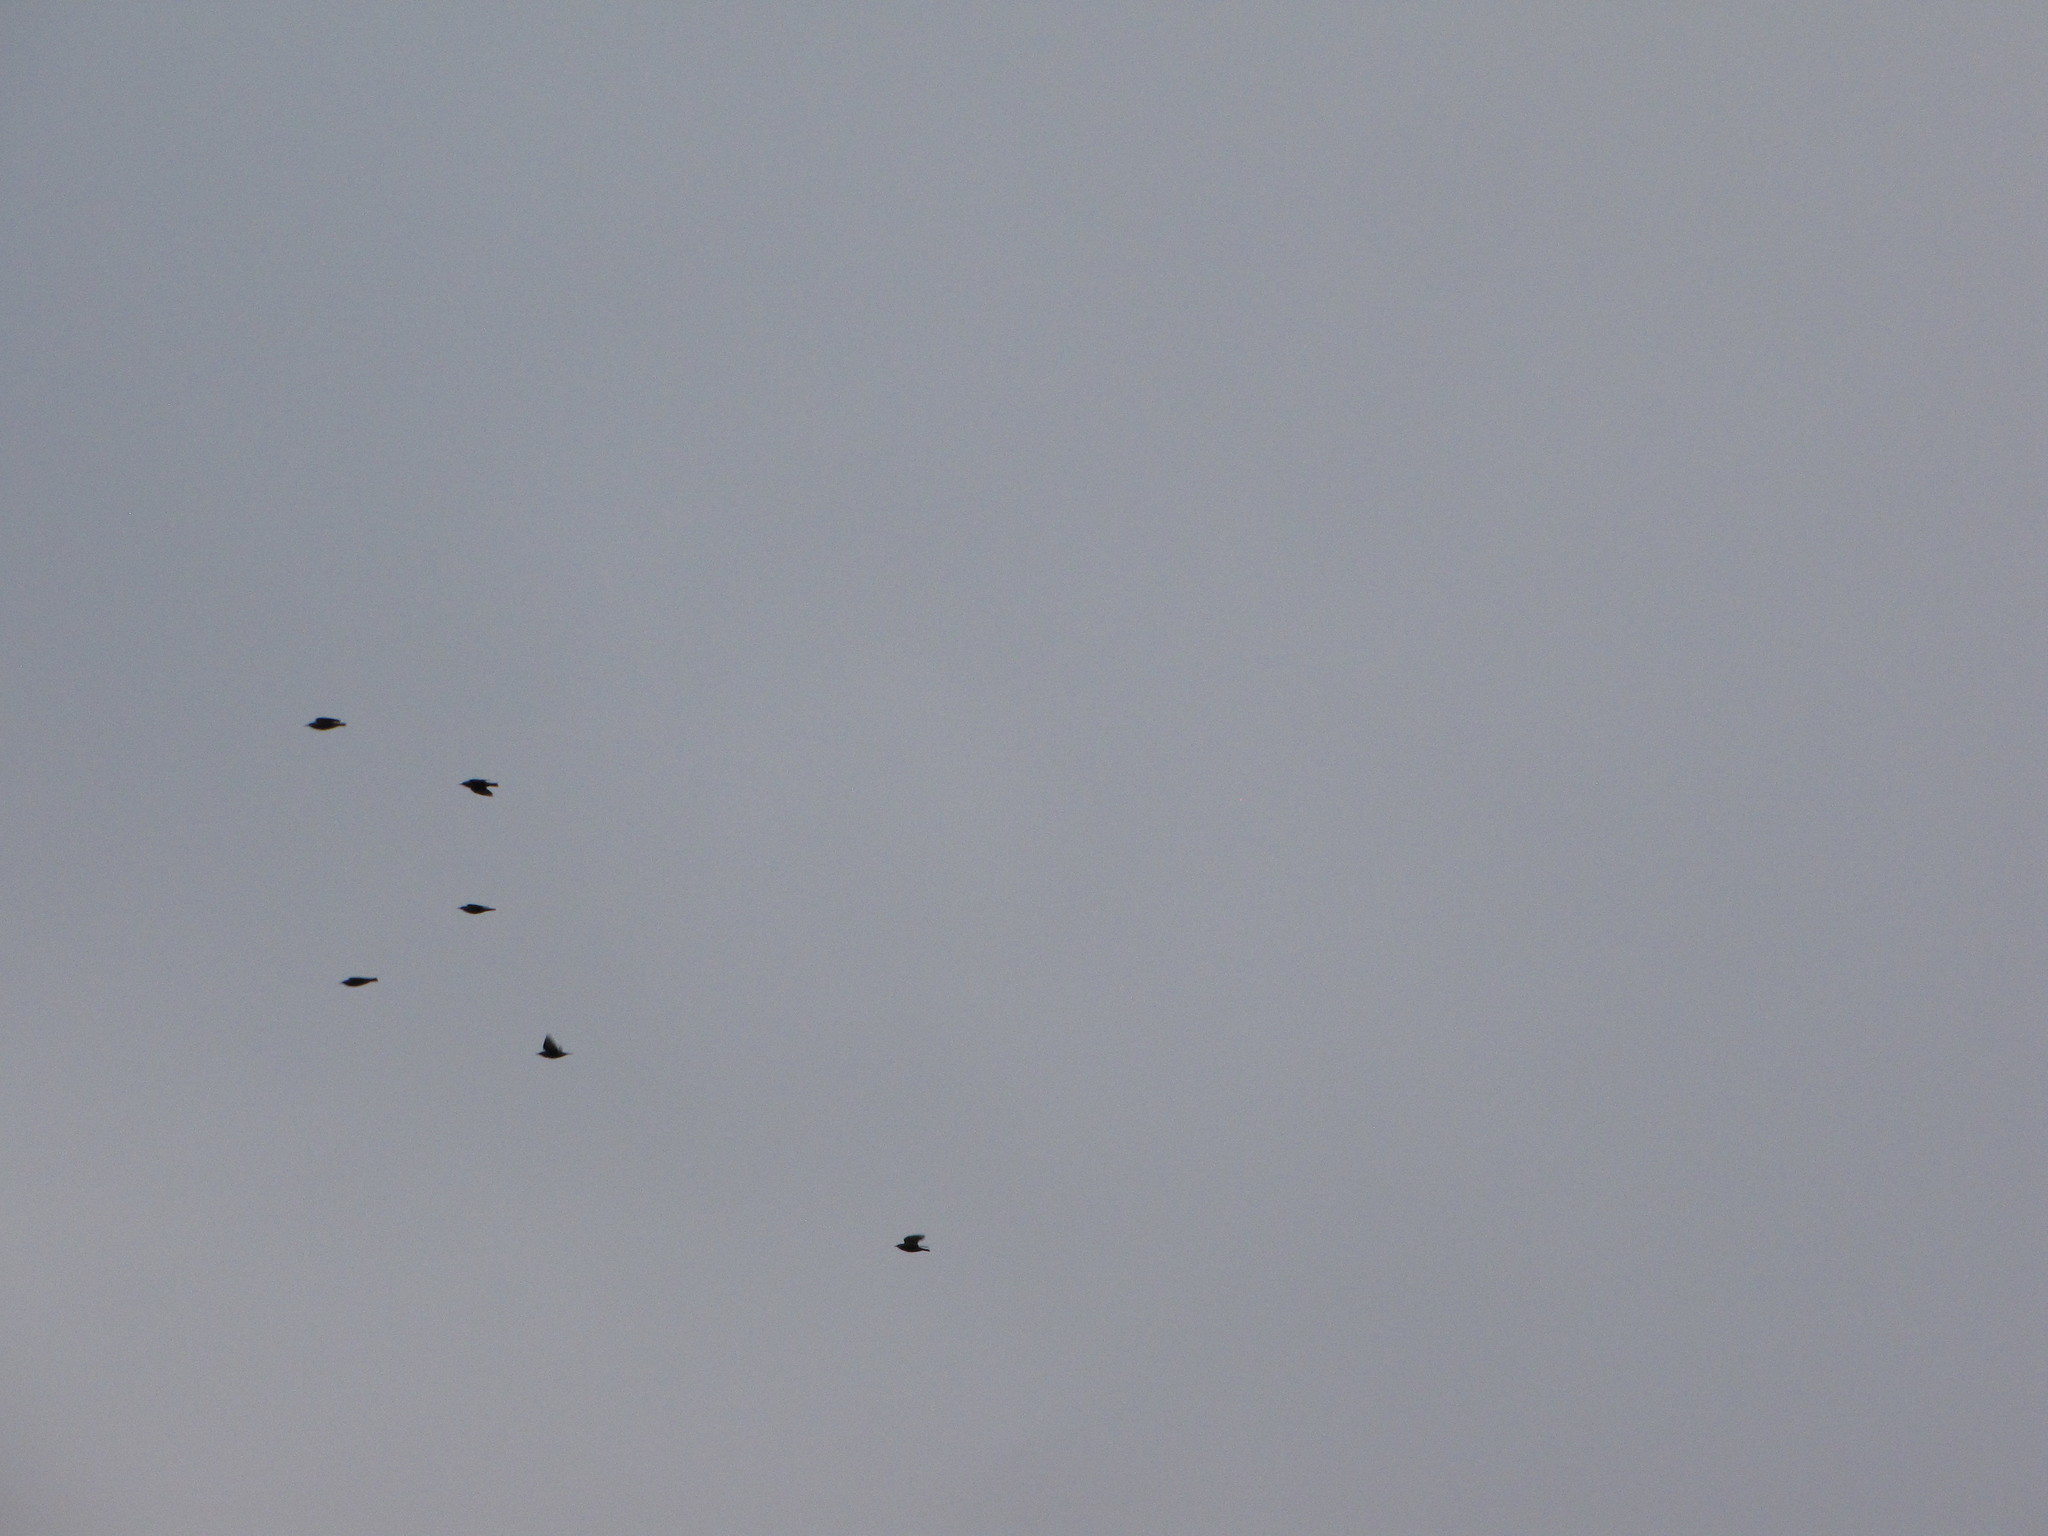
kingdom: Animalia
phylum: Chordata
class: Aves
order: Passeriformes
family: Corvidae
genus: Corvus
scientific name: Corvus brachyrhynchos
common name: American crow
